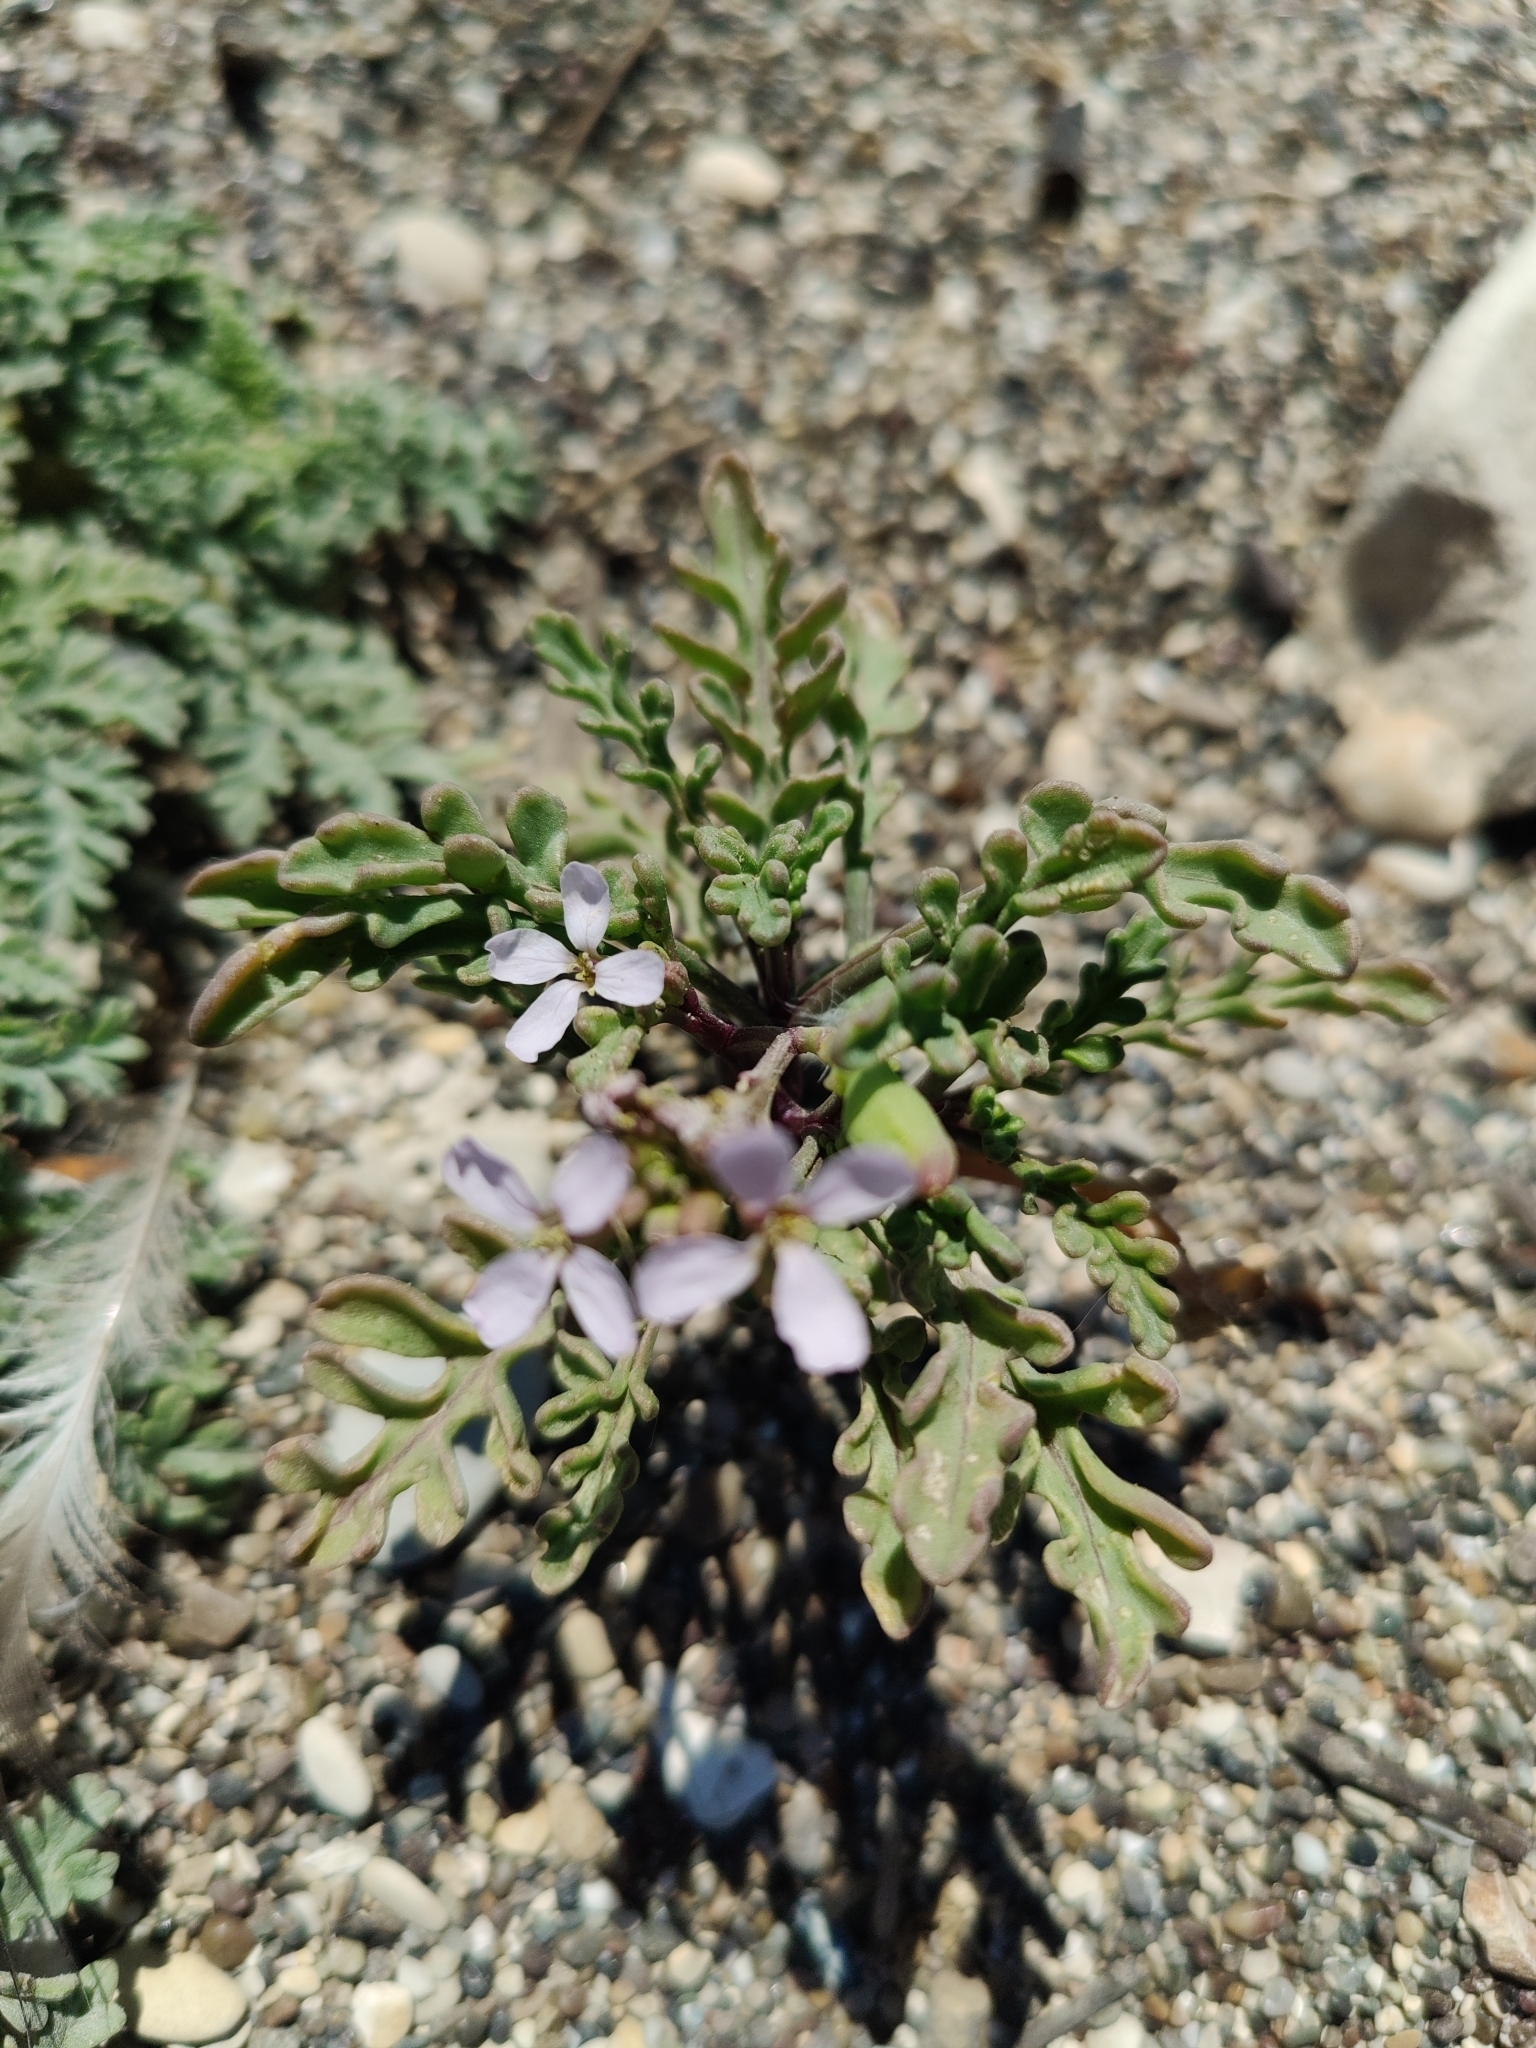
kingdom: Plantae
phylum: Tracheophyta
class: Magnoliopsida
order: Brassicales
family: Brassicaceae
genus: Cakile
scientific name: Cakile maritima
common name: Sea rocket
